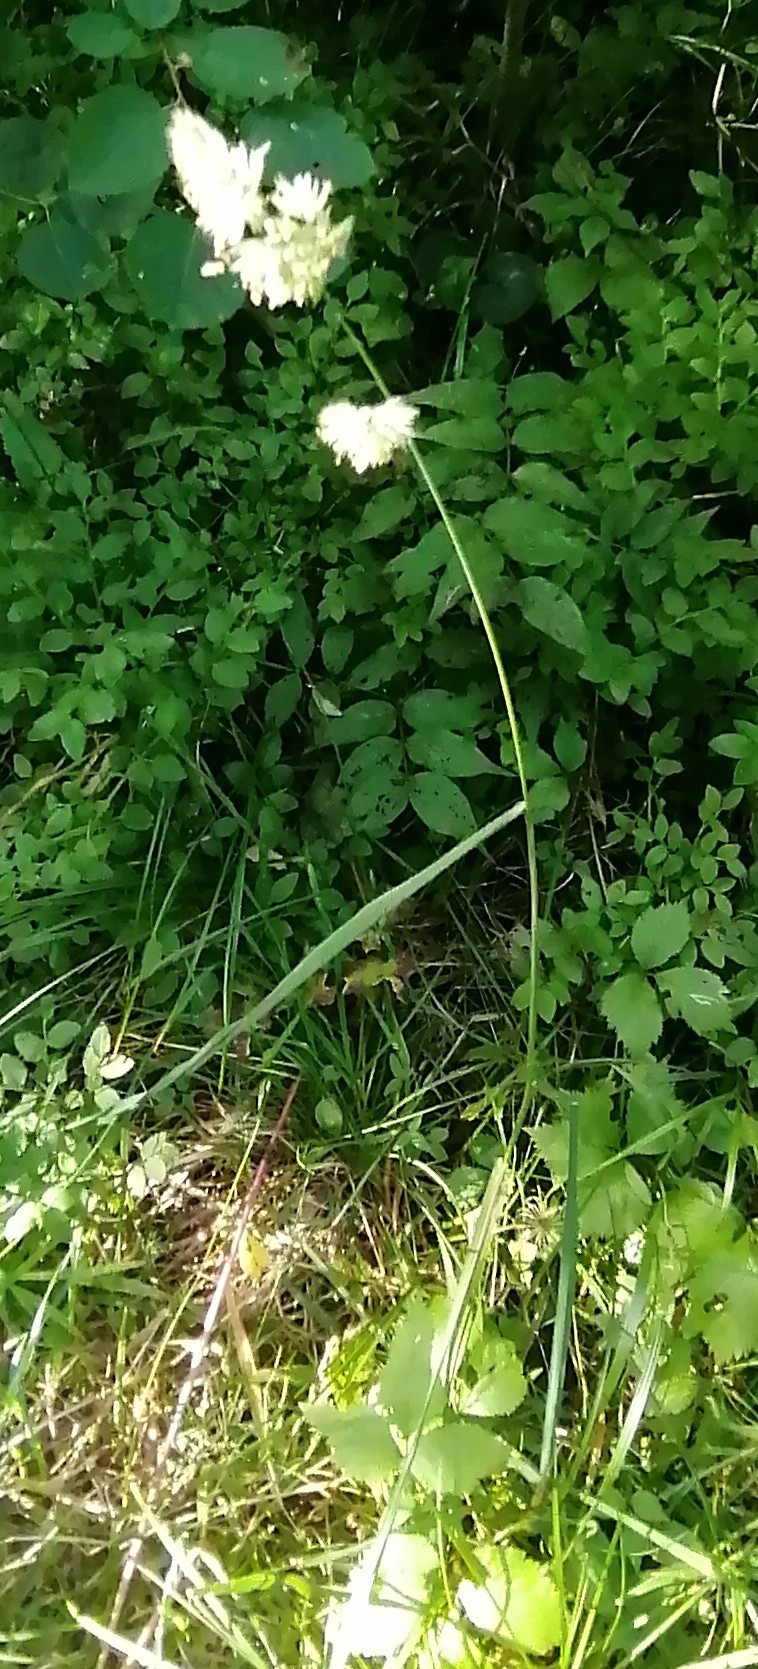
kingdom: Plantae
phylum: Tracheophyta
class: Liliopsida
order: Poales
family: Poaceae
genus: Dactylis
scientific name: Dactylis glomerata
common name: Orchardgrass
